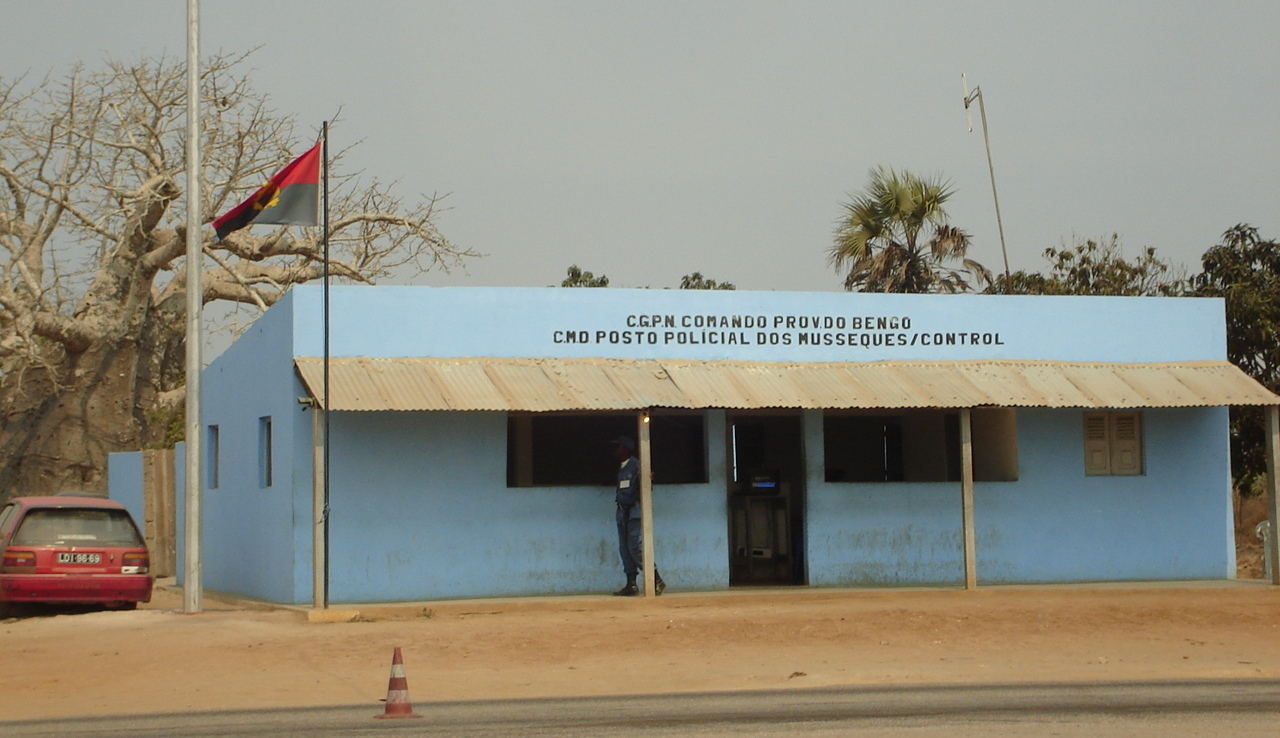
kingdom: Plantae
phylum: Tracheophyta
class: Magnoliopsida
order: Malvales
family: Malvaceae
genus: Adansonia
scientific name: Adansonia digitata
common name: Dead-rat-tree
